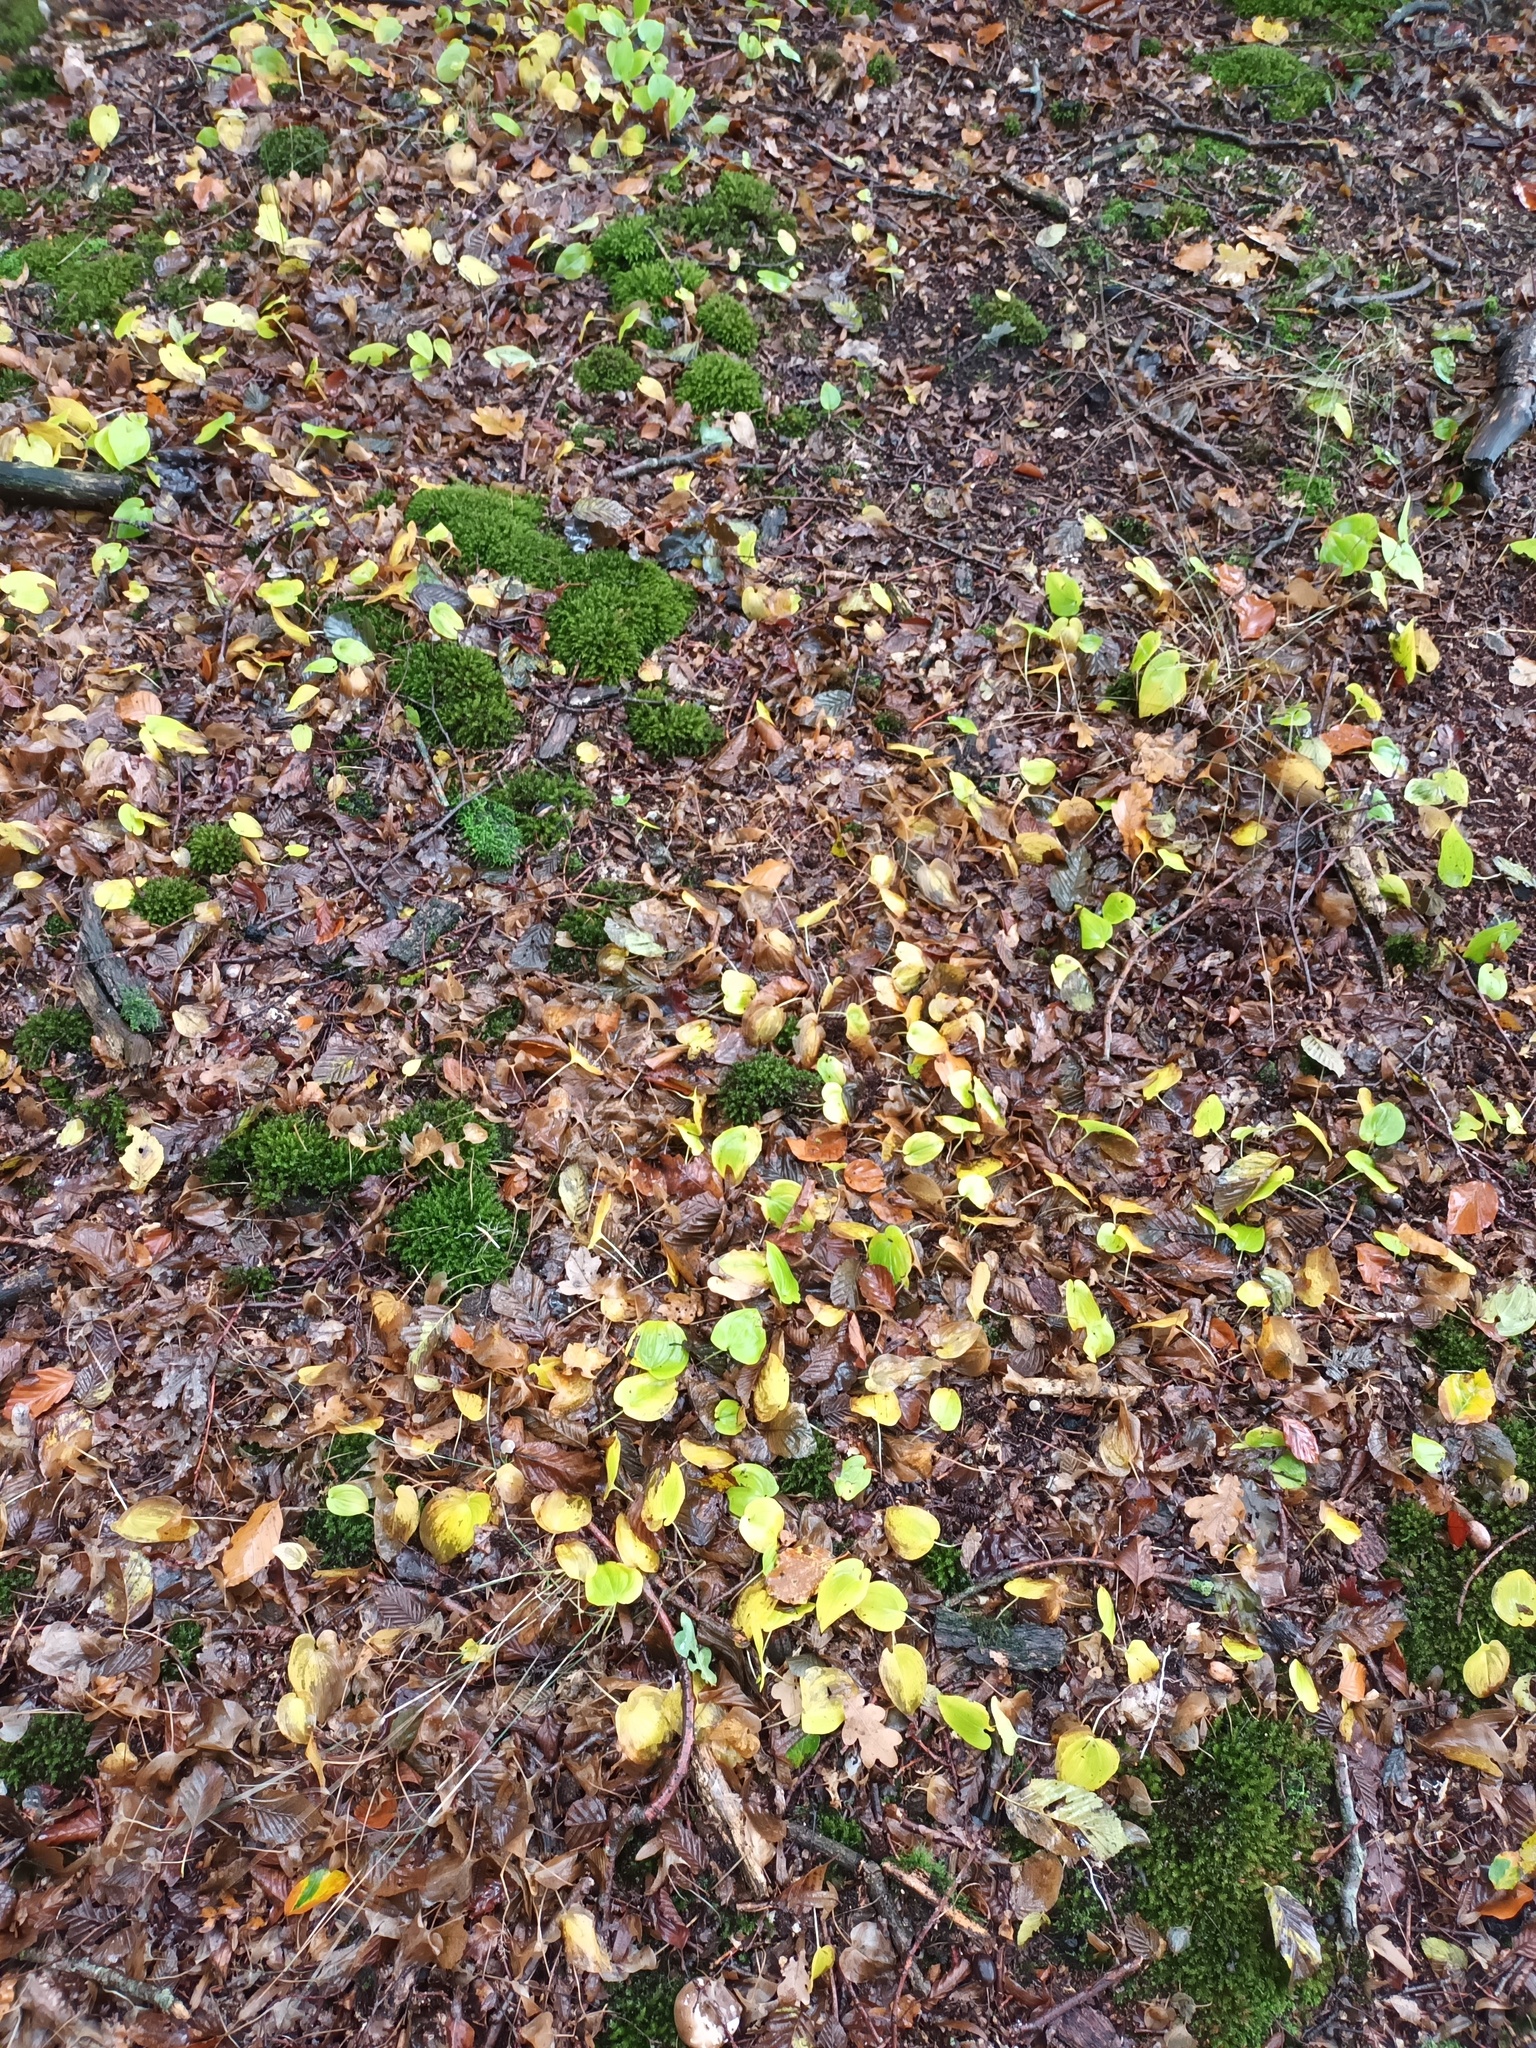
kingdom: Plantae
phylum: Tracheophyta
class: Liliopsida
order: Asparagales
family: Asparagaceae
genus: Maianthemum
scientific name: Maianthemum bifolium
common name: May lily
